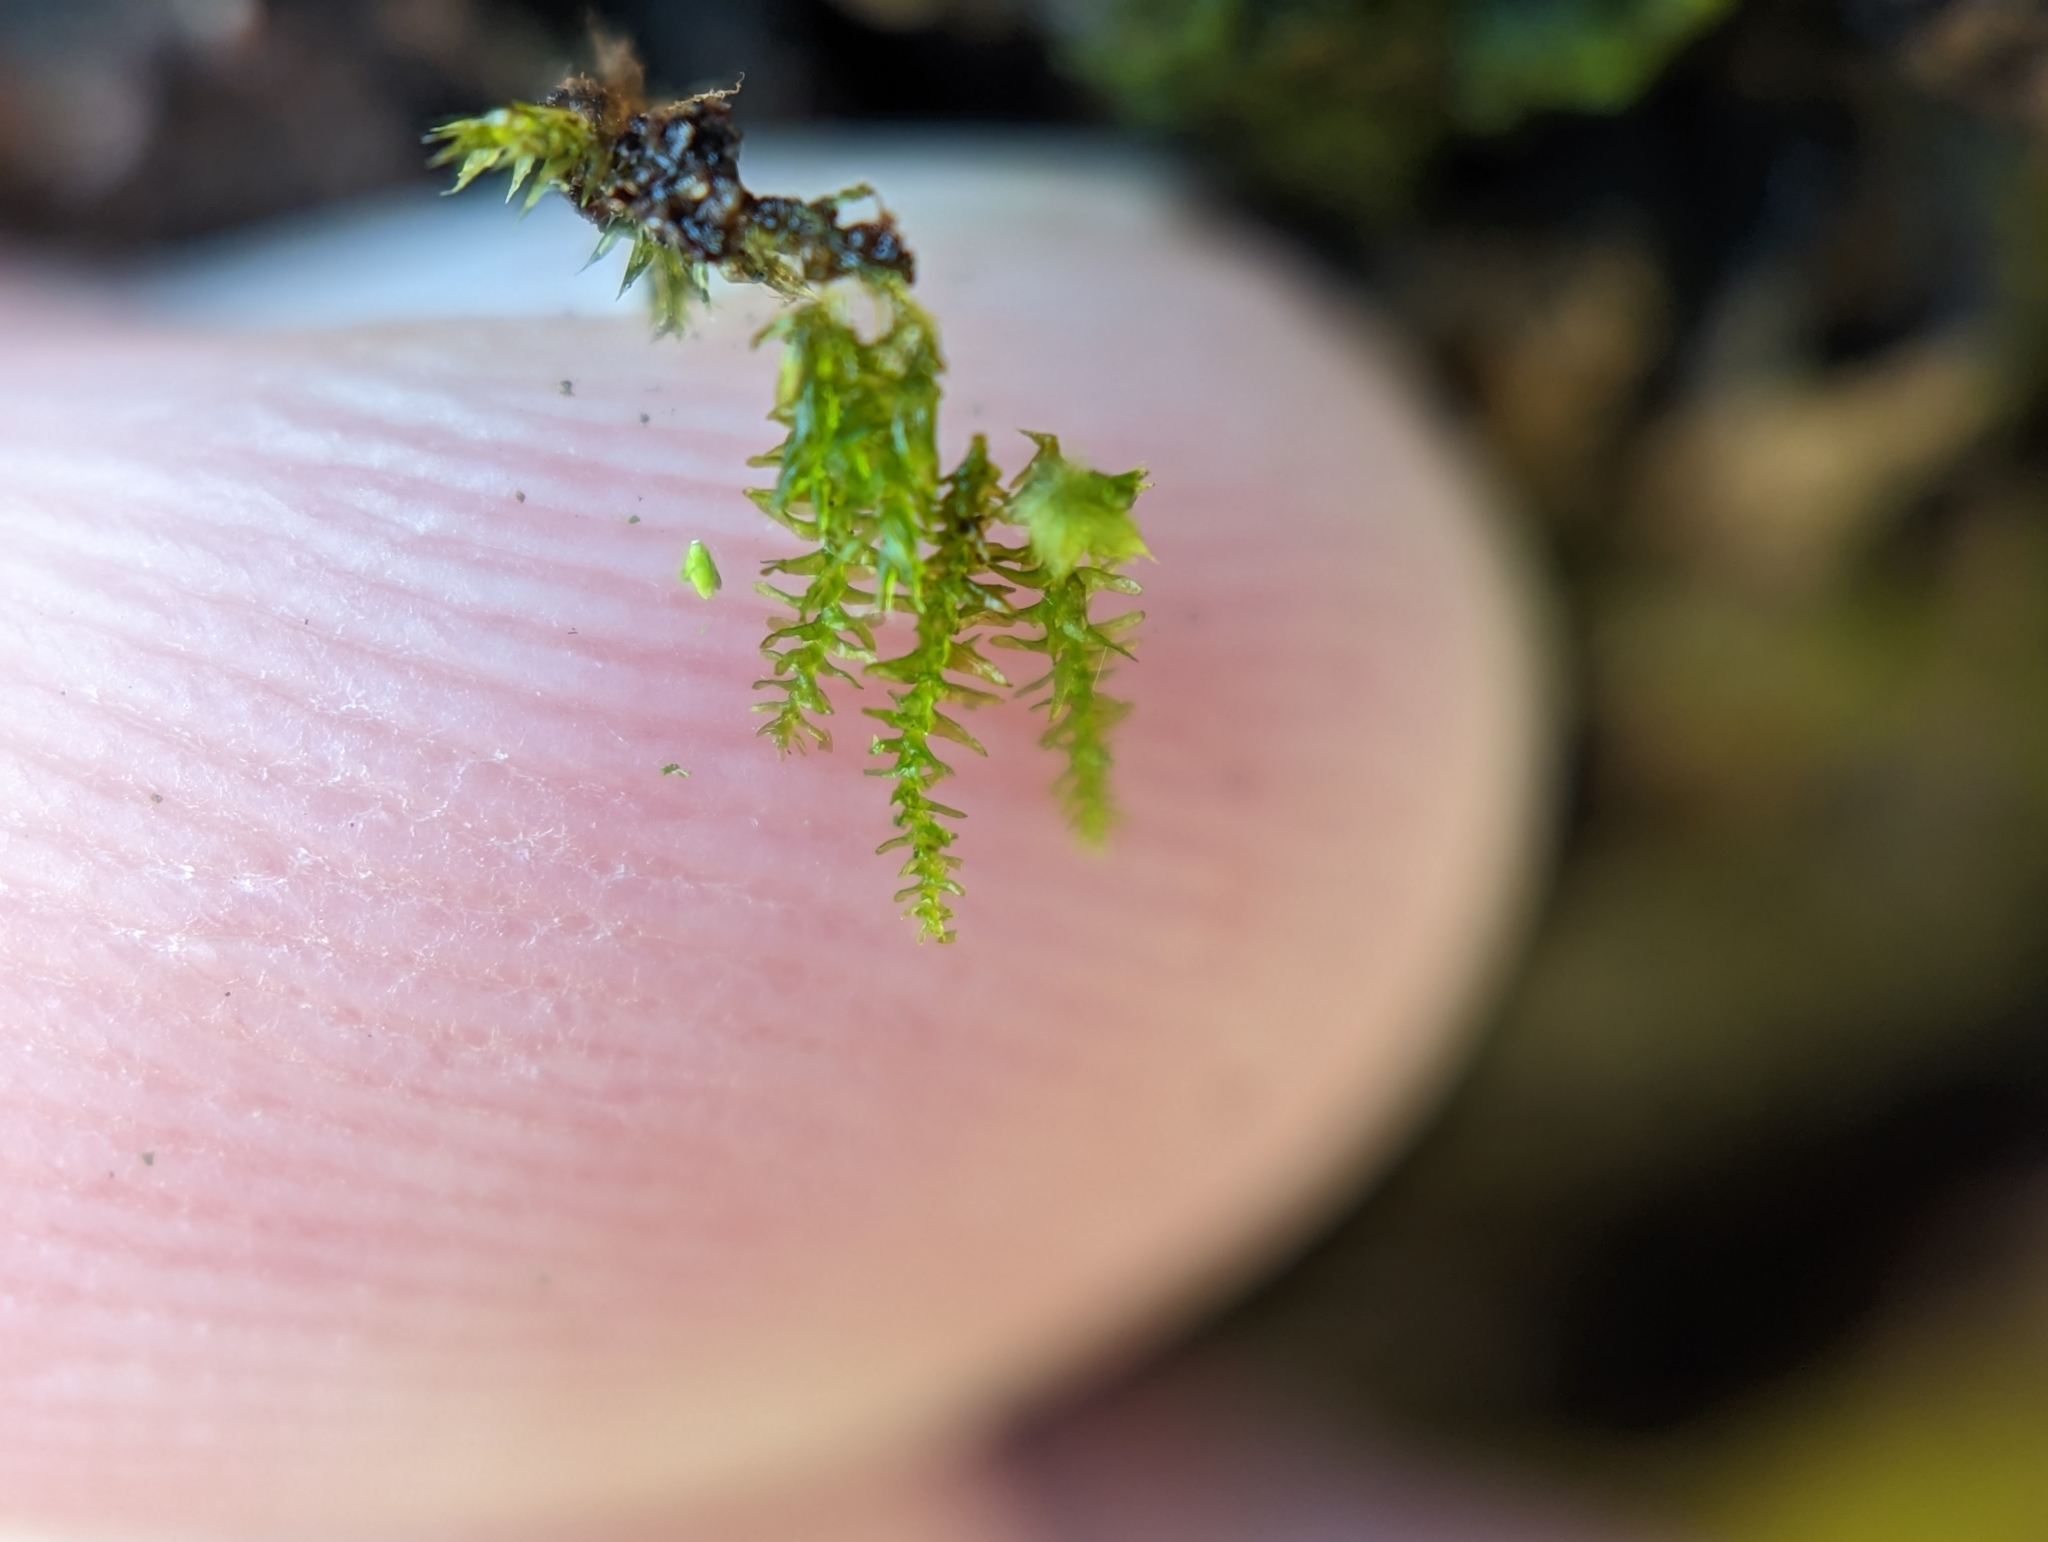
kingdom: Plantae
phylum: Bryophyta
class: Bryopsida
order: Hypnales
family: Neckeraceae
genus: Pseudanomodon
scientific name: Pseudanomodon attenuatus
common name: Tree-skirt moss
